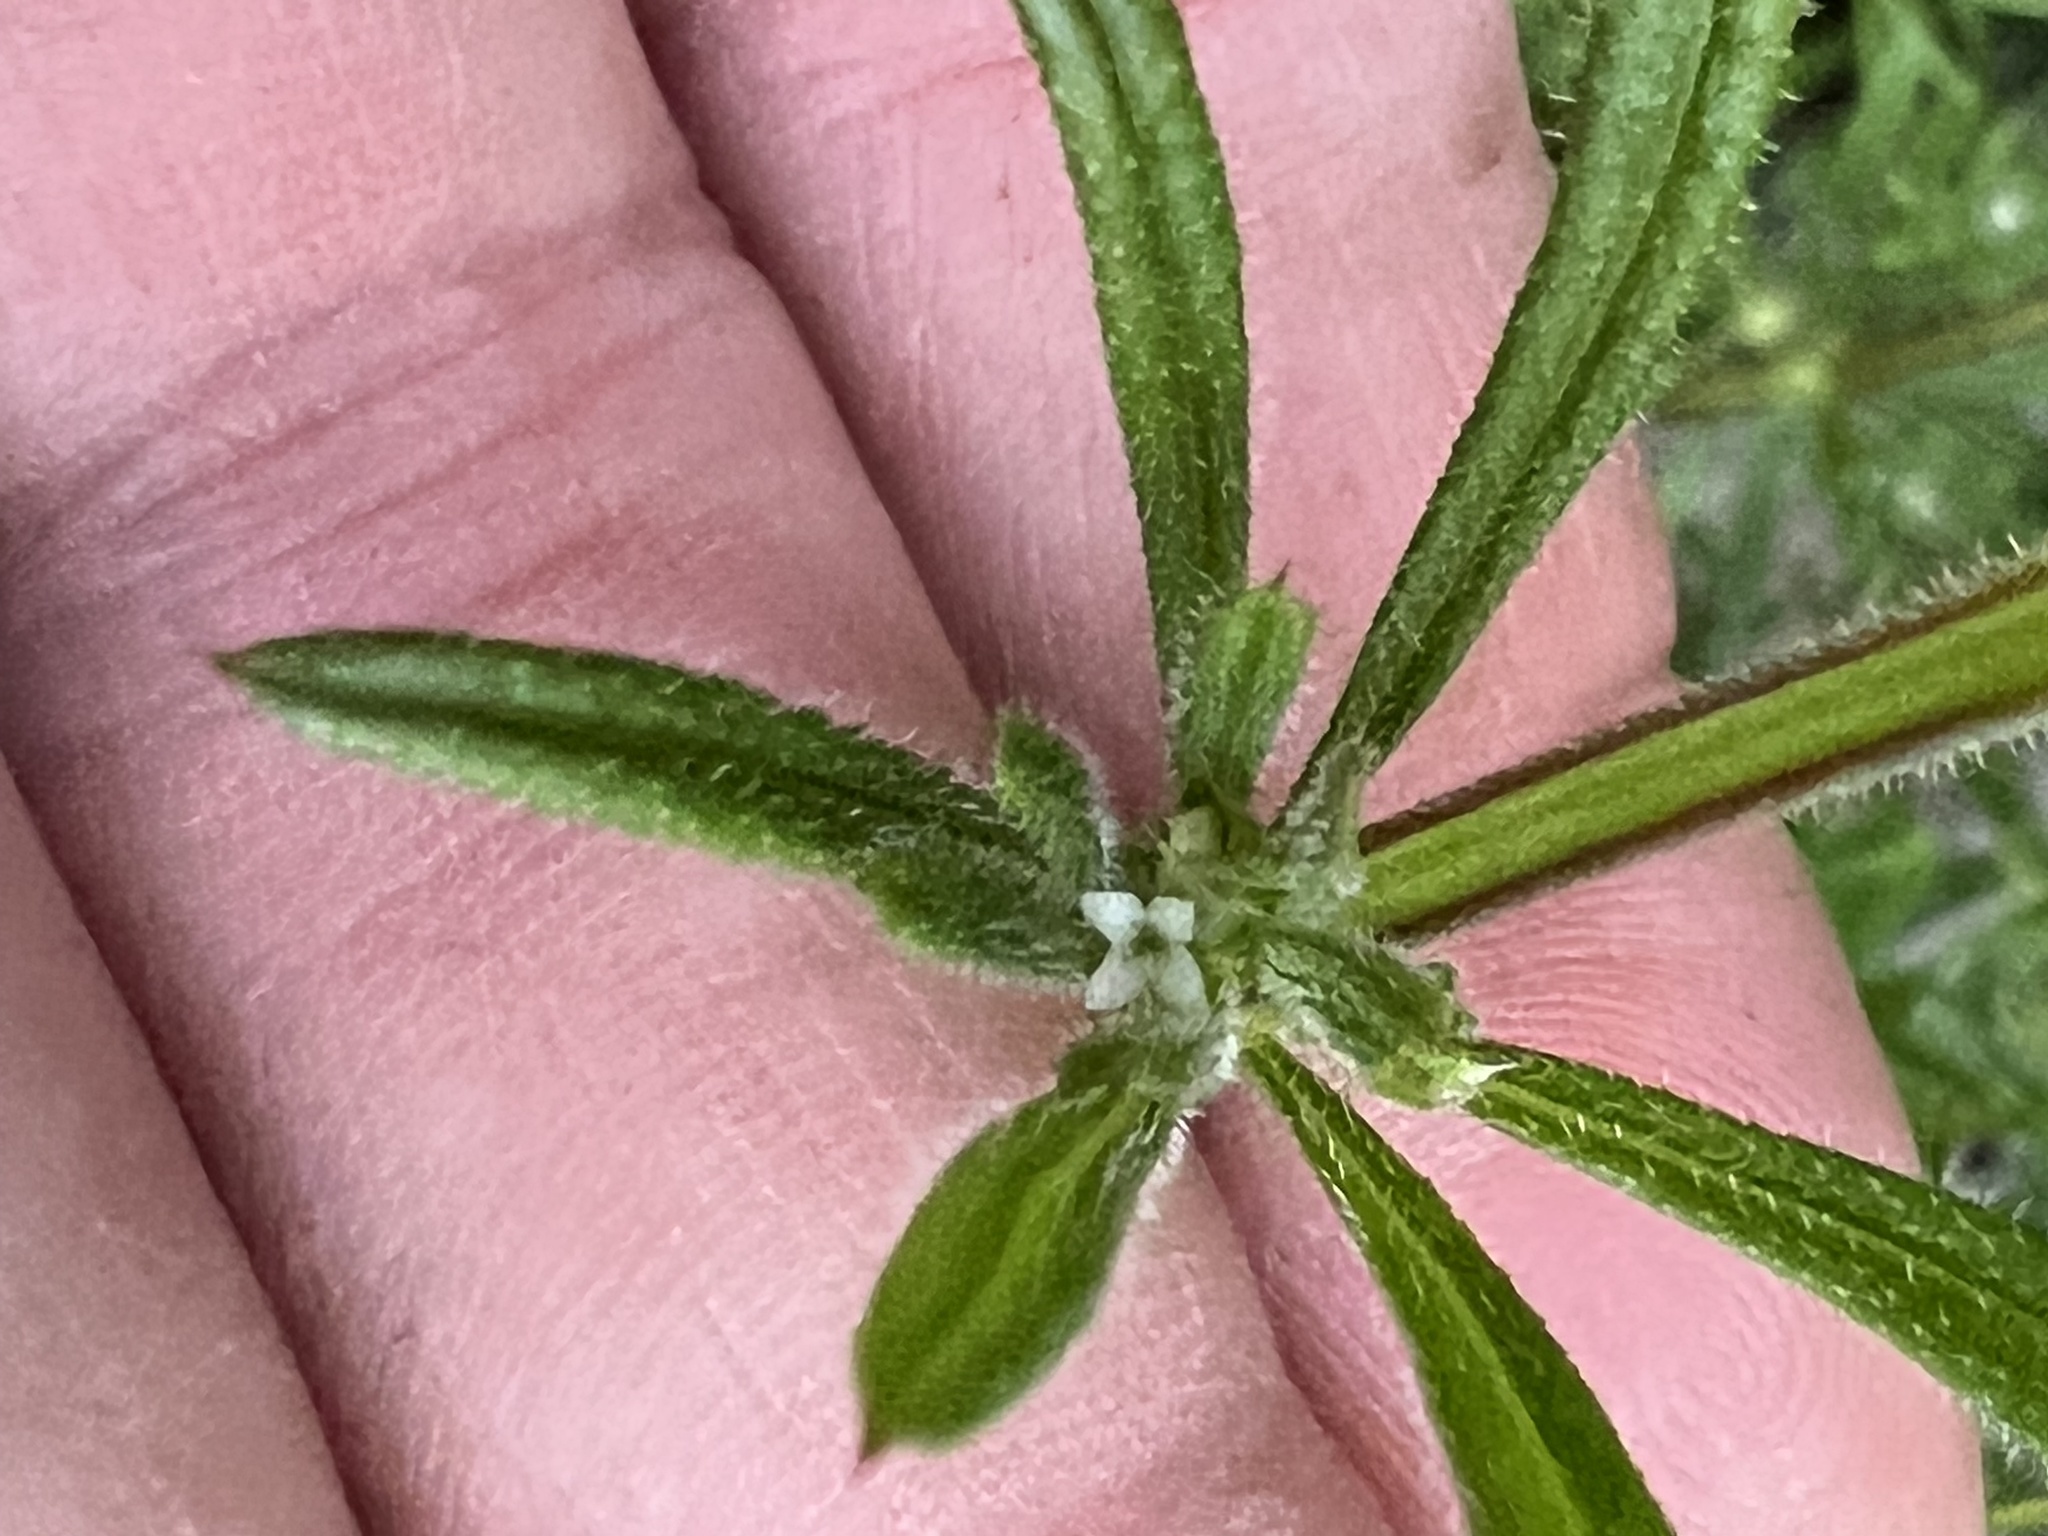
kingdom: Plantae
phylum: Tracheophyta
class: Magnoliopsida
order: Gentianales
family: Rubiaceae
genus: Galium
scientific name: Galium aparine
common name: Cleavers
